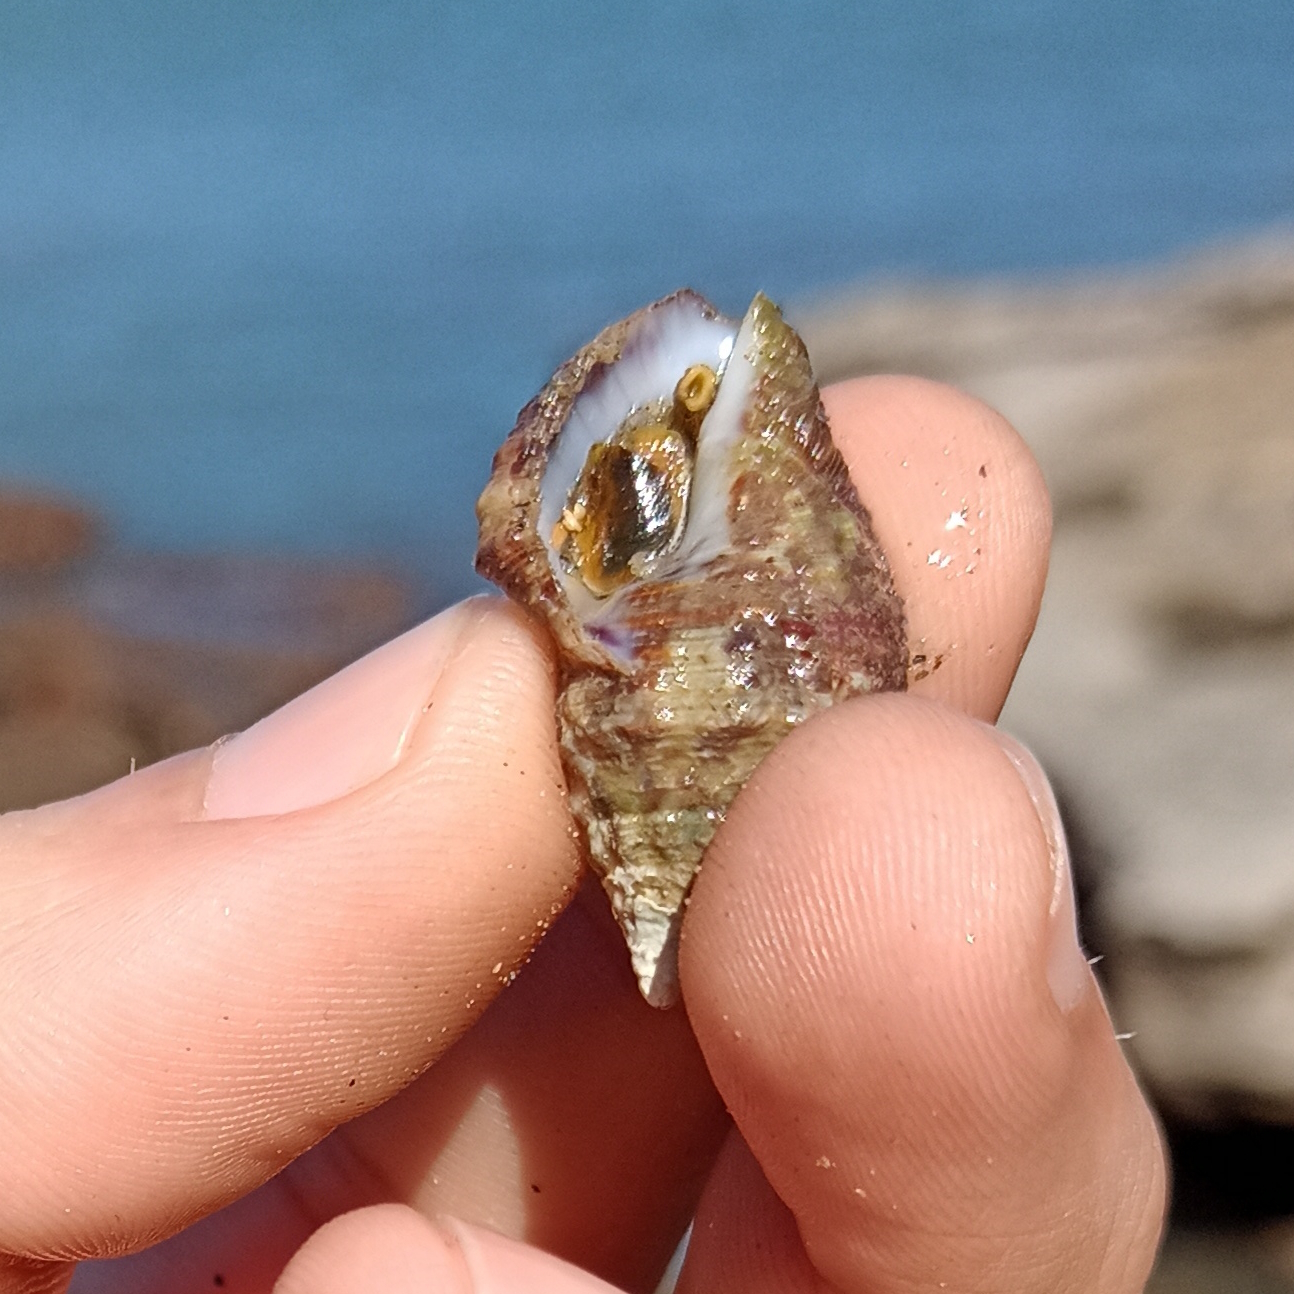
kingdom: Animalia
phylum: Mollusca
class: Gastropoda
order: Neogastropoda
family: Pisaniidae
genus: Gemophos
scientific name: Gemophos auritulus
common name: Gaudy cantharus
